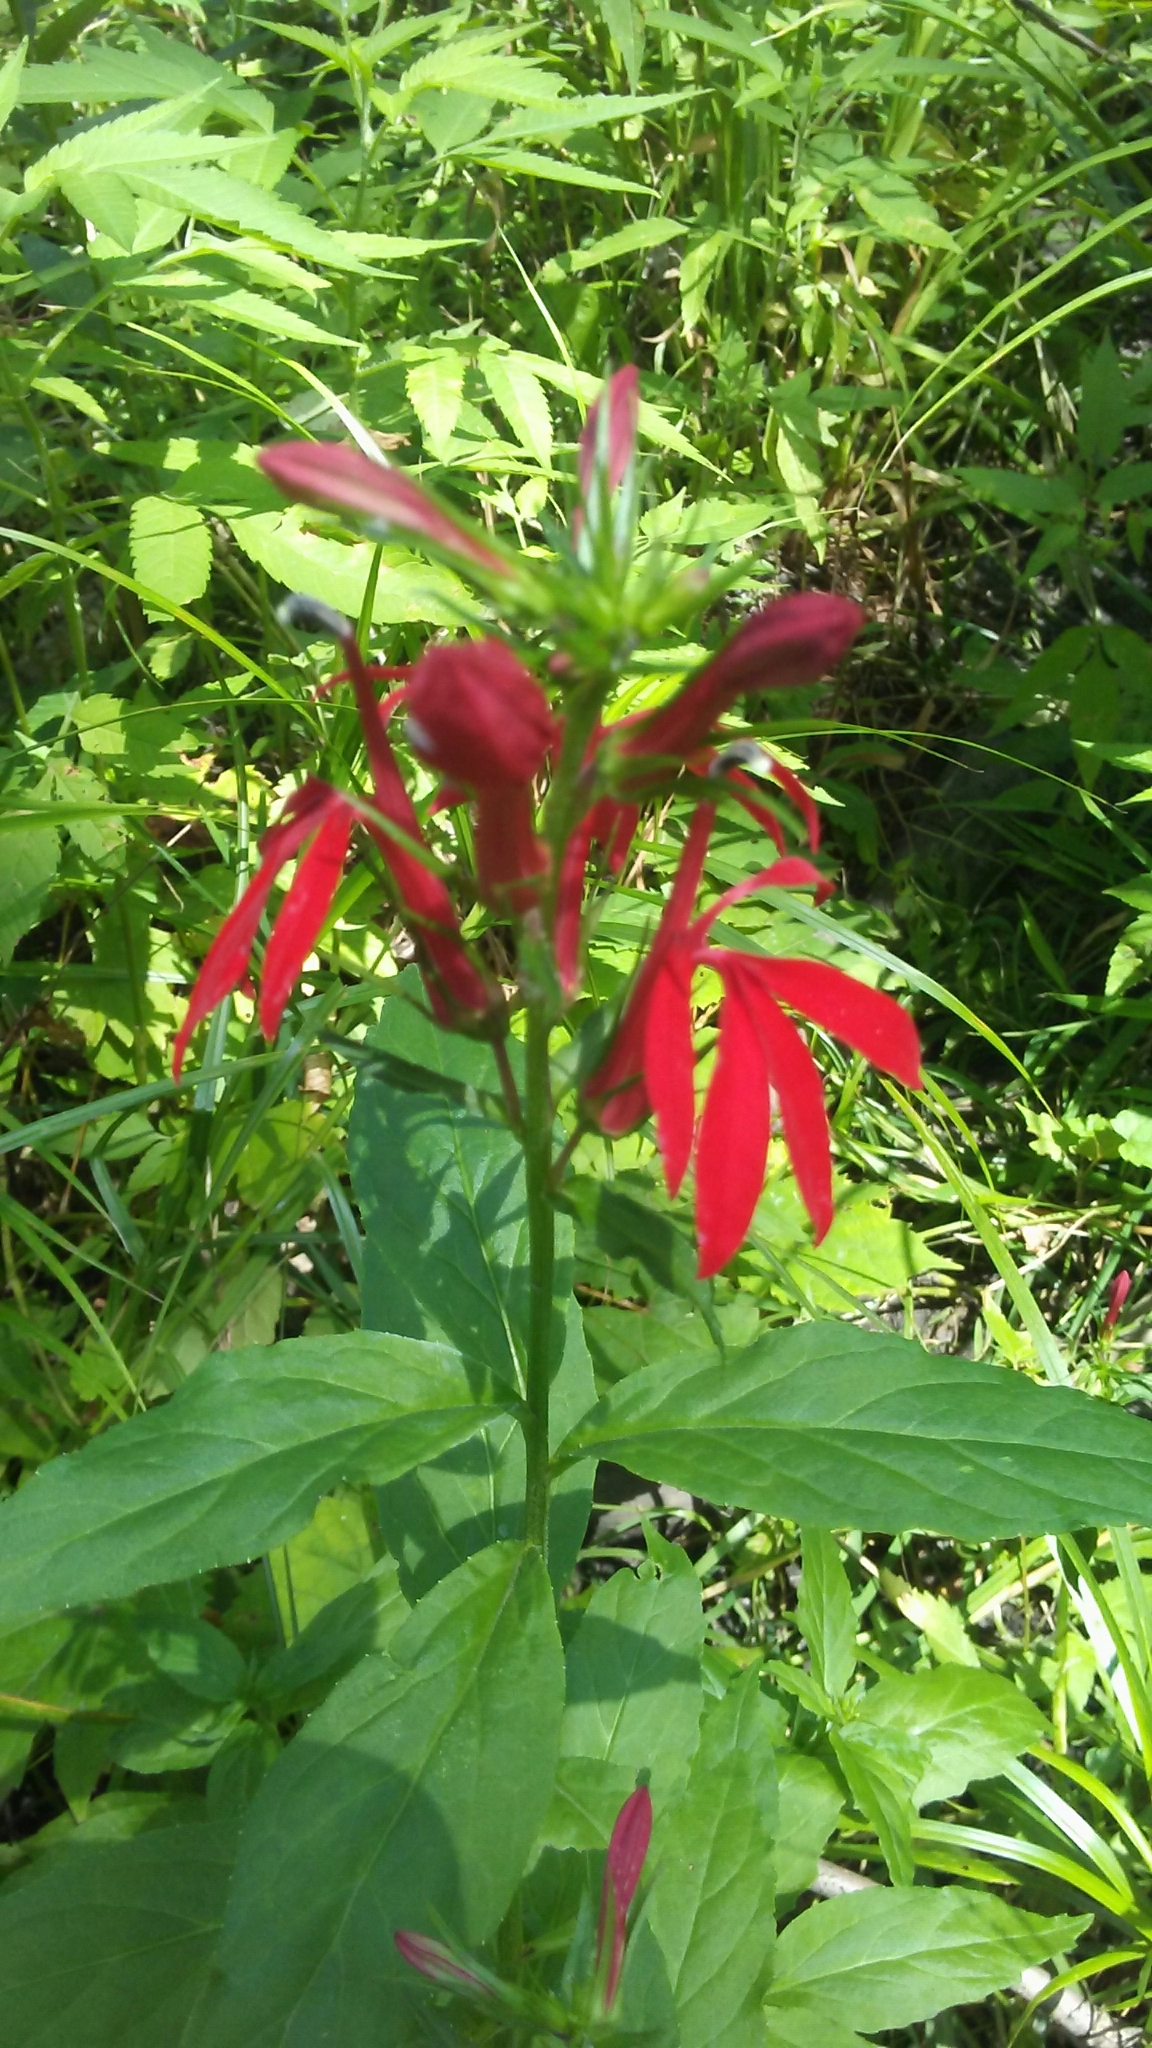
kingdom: Plantae
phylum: Tracheophyta
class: Magnoliopsida
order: Asterales
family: Campanulaceae
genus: Lobelia
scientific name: Lobelia cardinalis
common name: Cardinal flower
